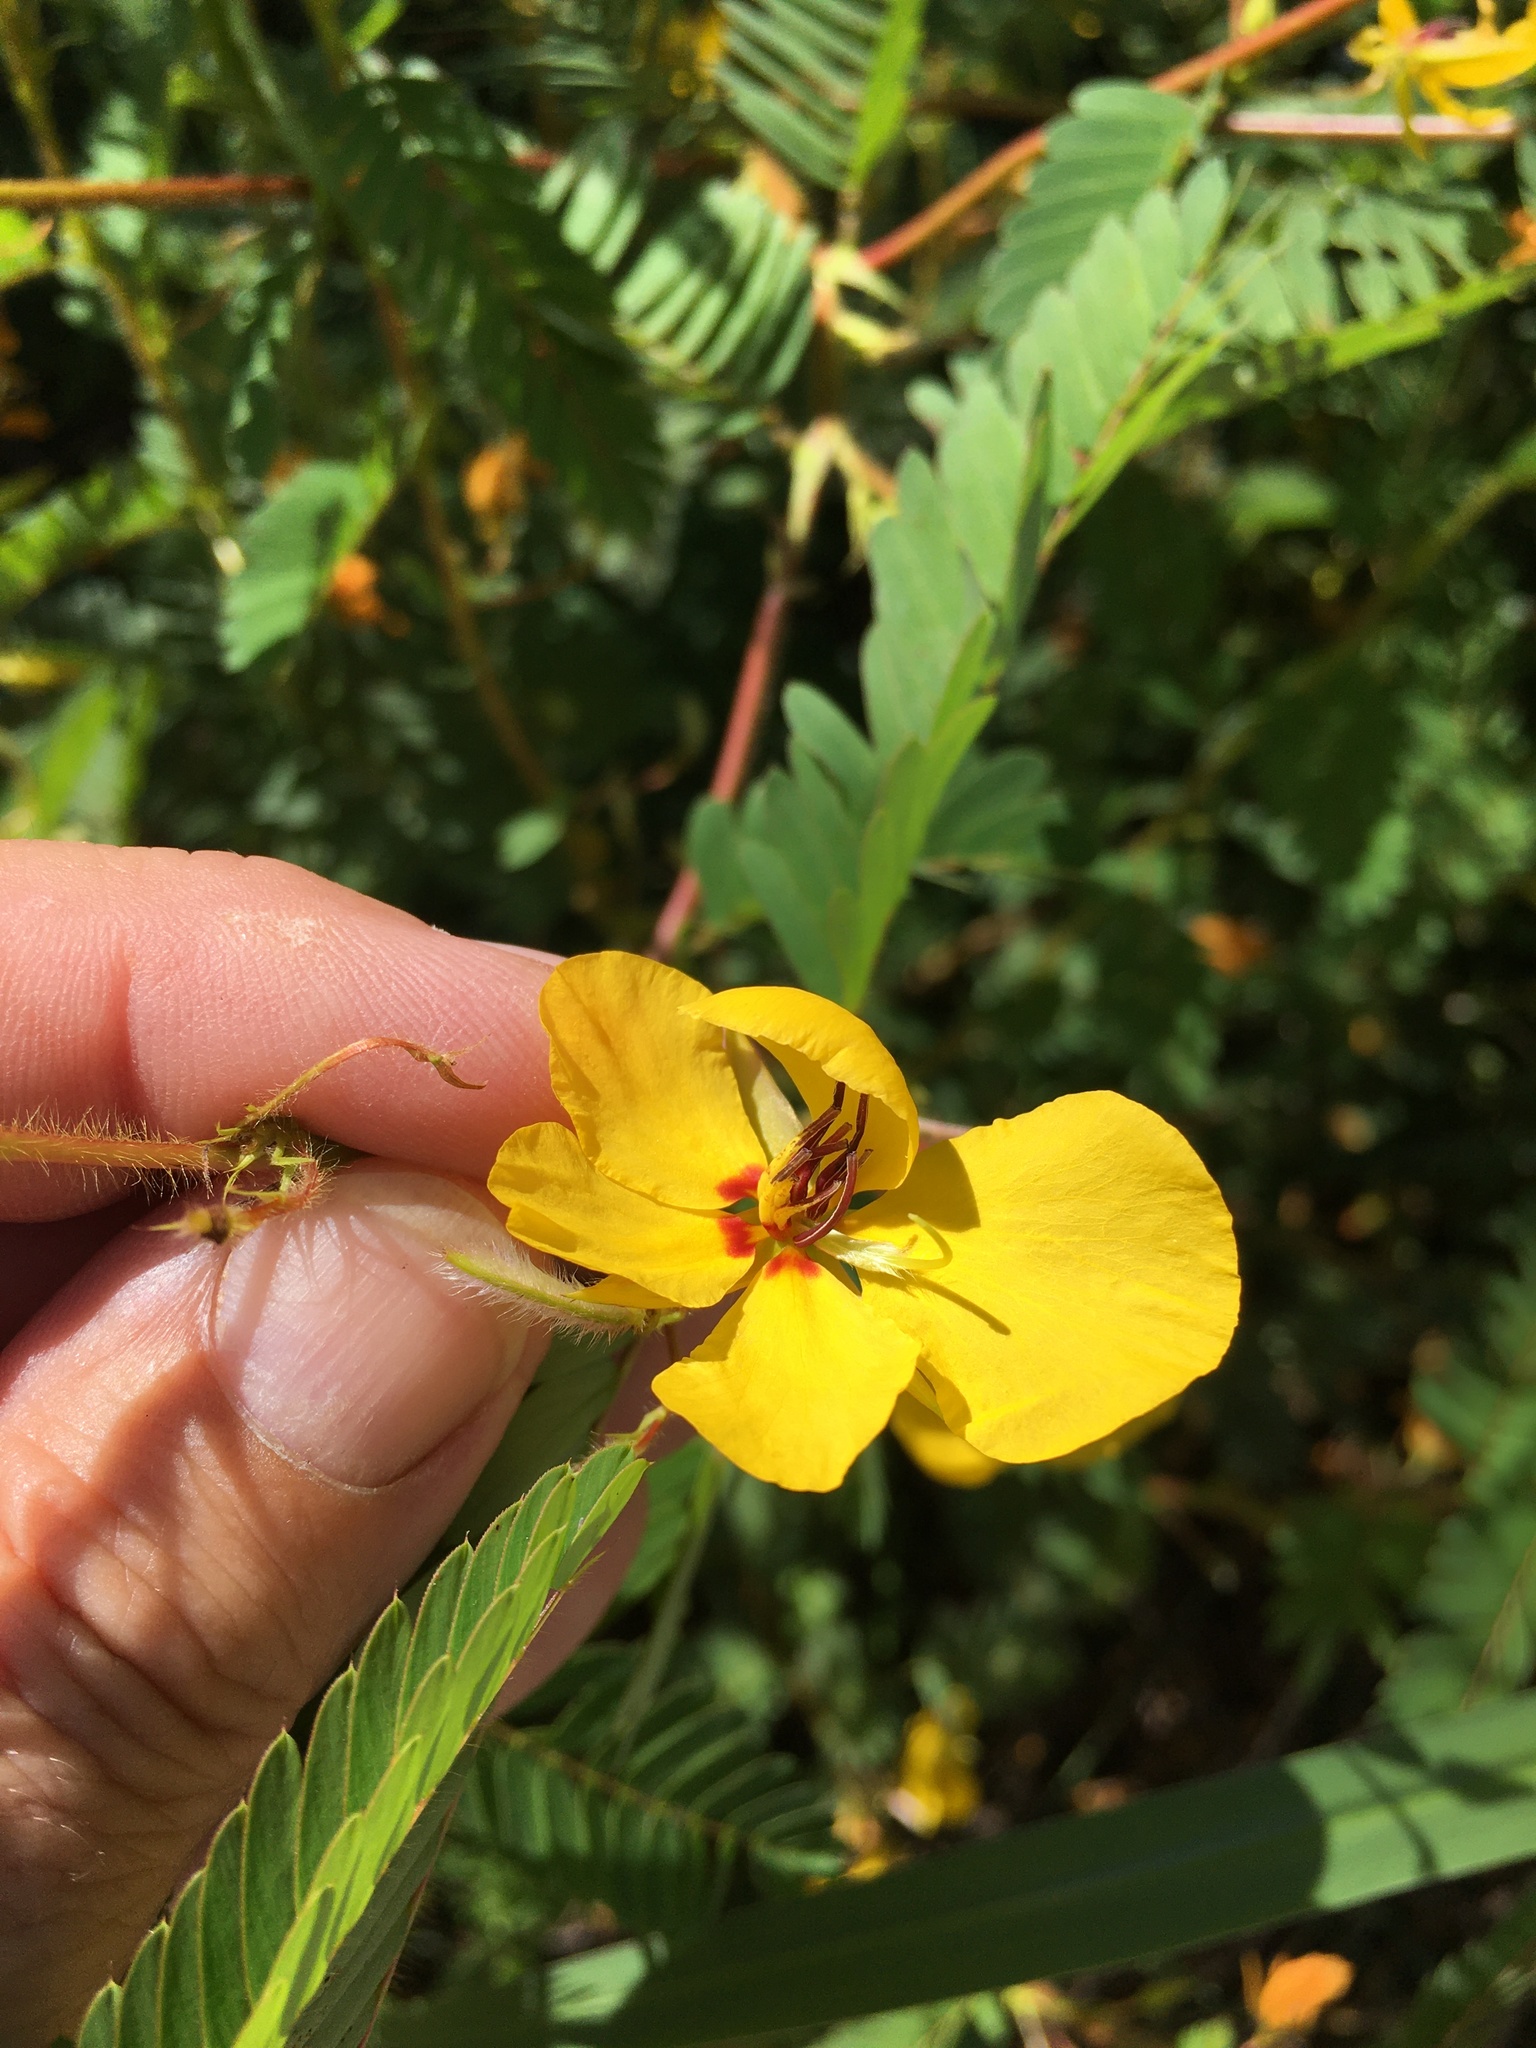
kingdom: Plantae
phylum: Tracheophyta
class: Magnoliopsida
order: Fabales
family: Fabaceae
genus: Chamaecrista
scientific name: Chamaecrista fasciculata
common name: Golden cassia
